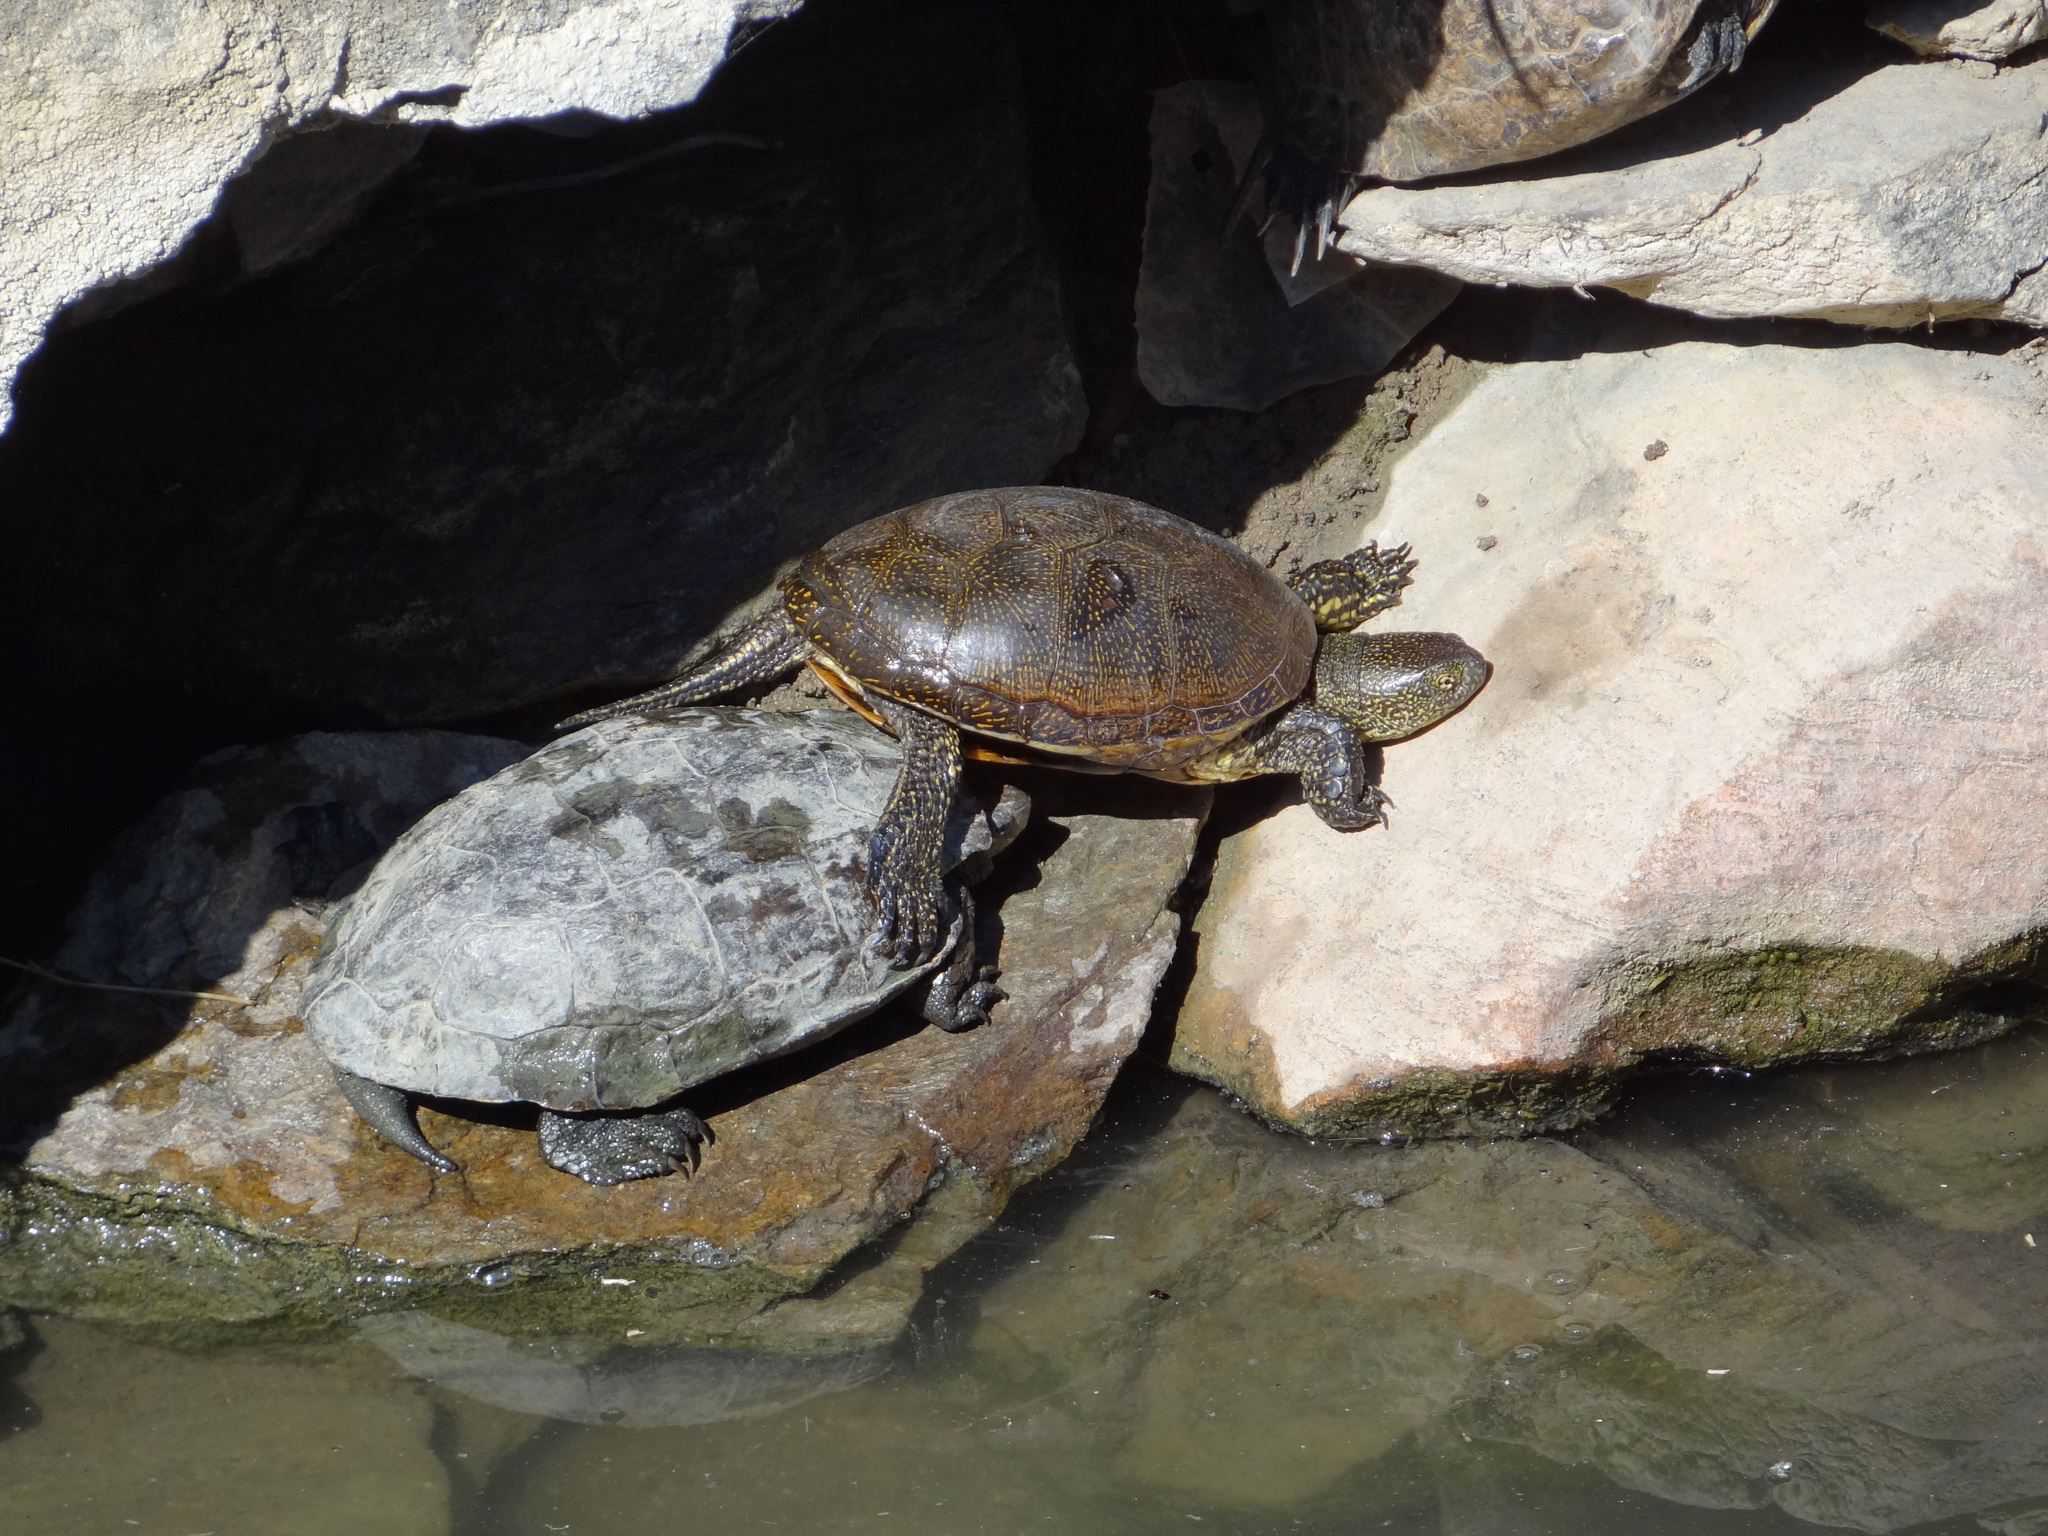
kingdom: Animalia
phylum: Chordata
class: Testudines
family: Emydidae
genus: Emys
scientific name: Emys orbicularis
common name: European pond turtle
